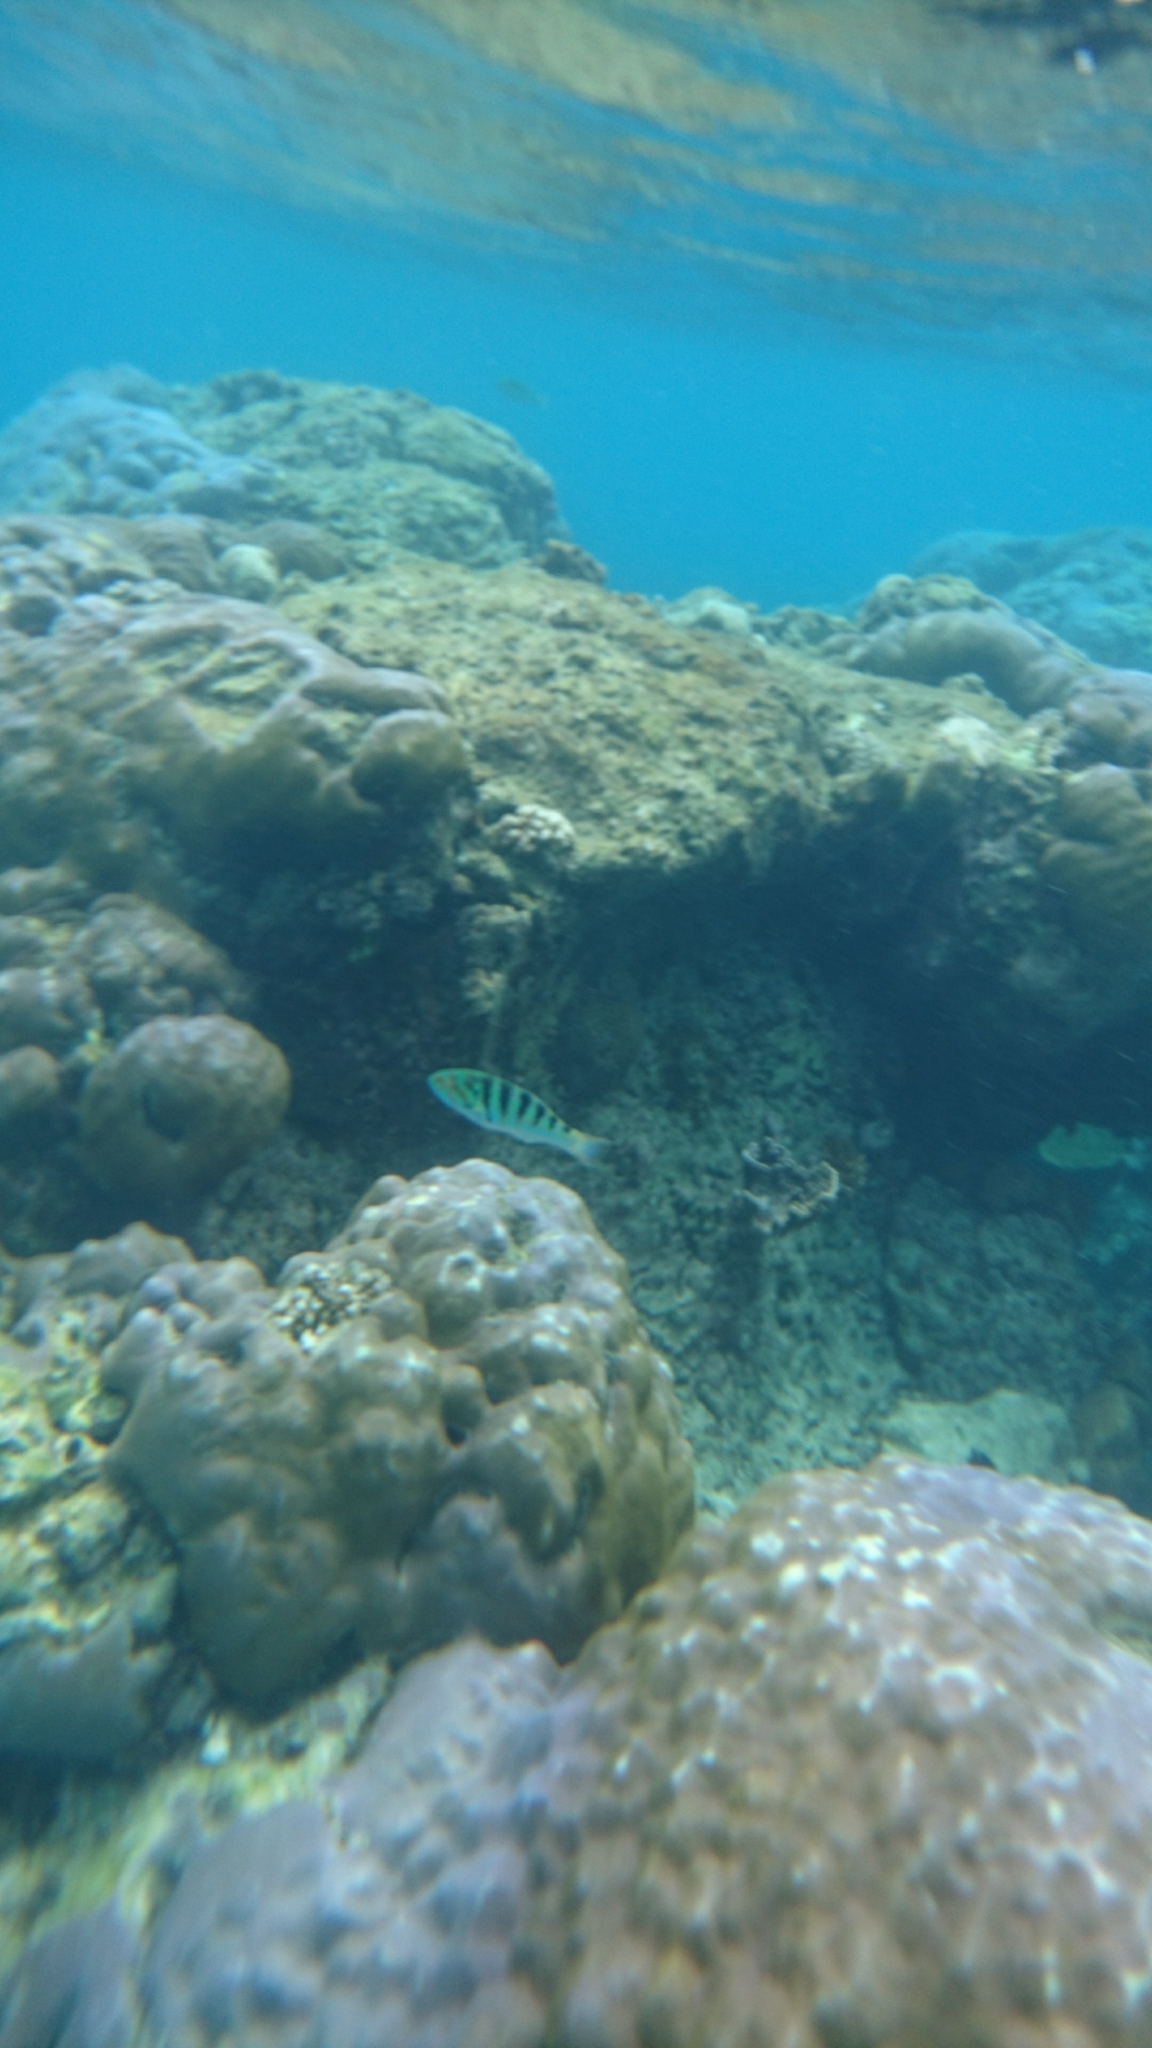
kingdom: Animalia
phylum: Chordata
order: Perciformes
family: Labridae
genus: Thalassoma
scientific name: Thalassoma hardwicke
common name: Sixbar wrasse
